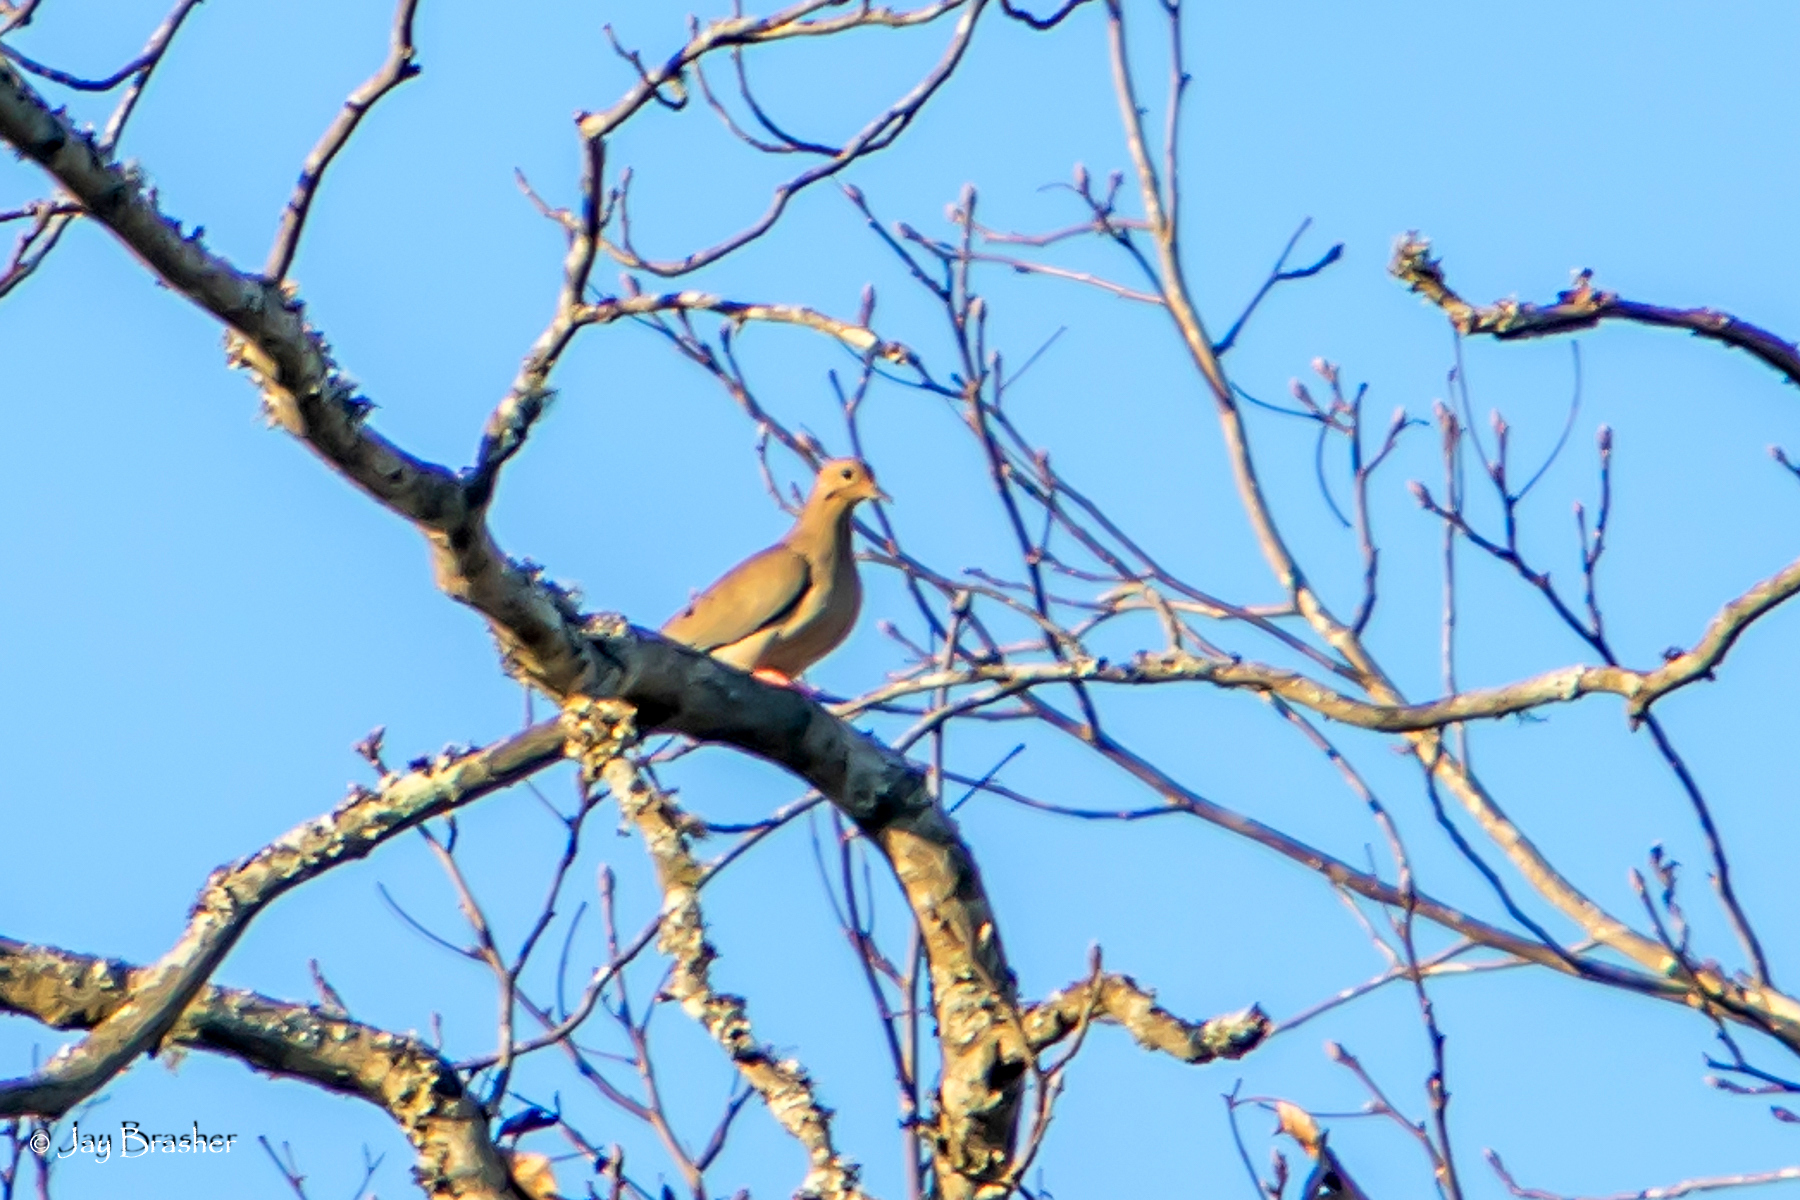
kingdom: Animalia
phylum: Chordata
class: Aves
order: Columbiformes
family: Columbidae
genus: Zenaida
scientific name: Zenaida macroura
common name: Mourning dove
